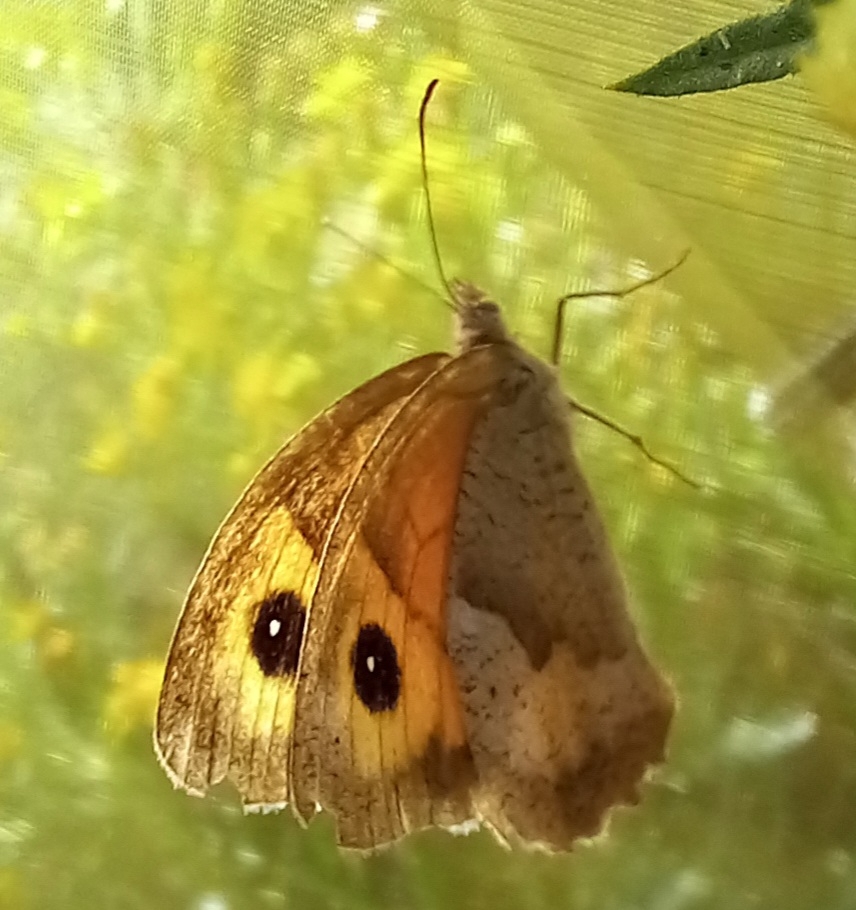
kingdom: Animalia
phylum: Arthropoda
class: Insecta
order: Lepidoptera
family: Nymphalidae
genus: Maniola
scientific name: Maniola jurtina
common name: Meadow brown
